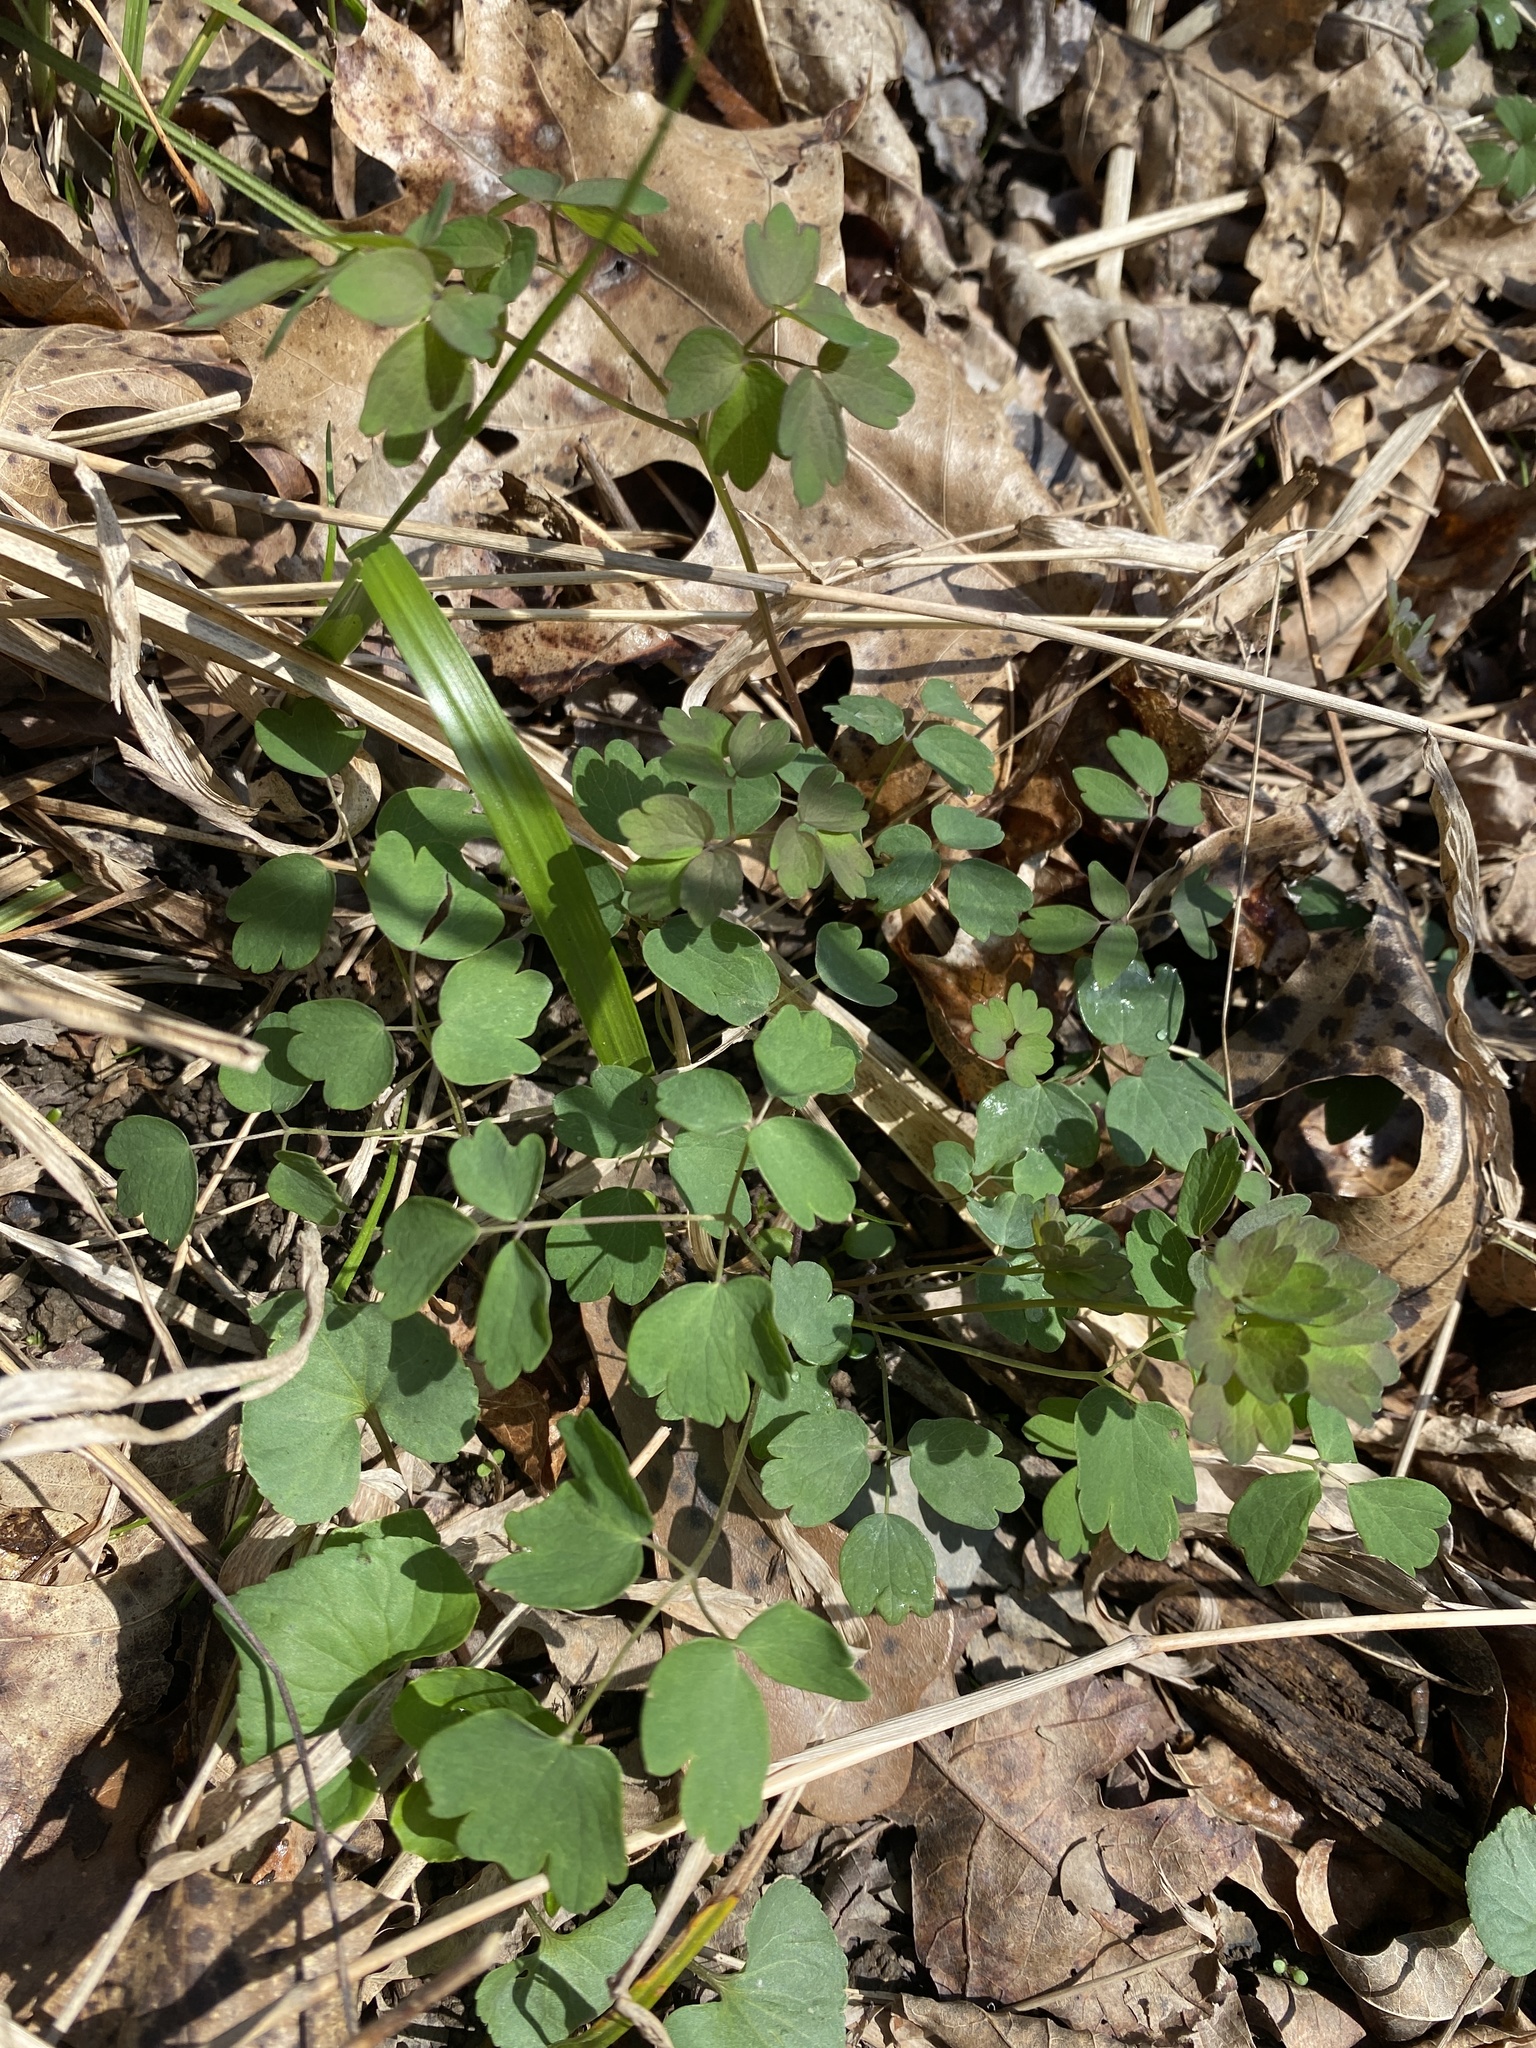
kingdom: Plantae
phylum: Tracheophyta
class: Magnoliopsida
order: Ranunculales
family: Ranunculaceae
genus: Thalictrum
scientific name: Thalictrum revolutum
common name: Waxy meadow-rue
